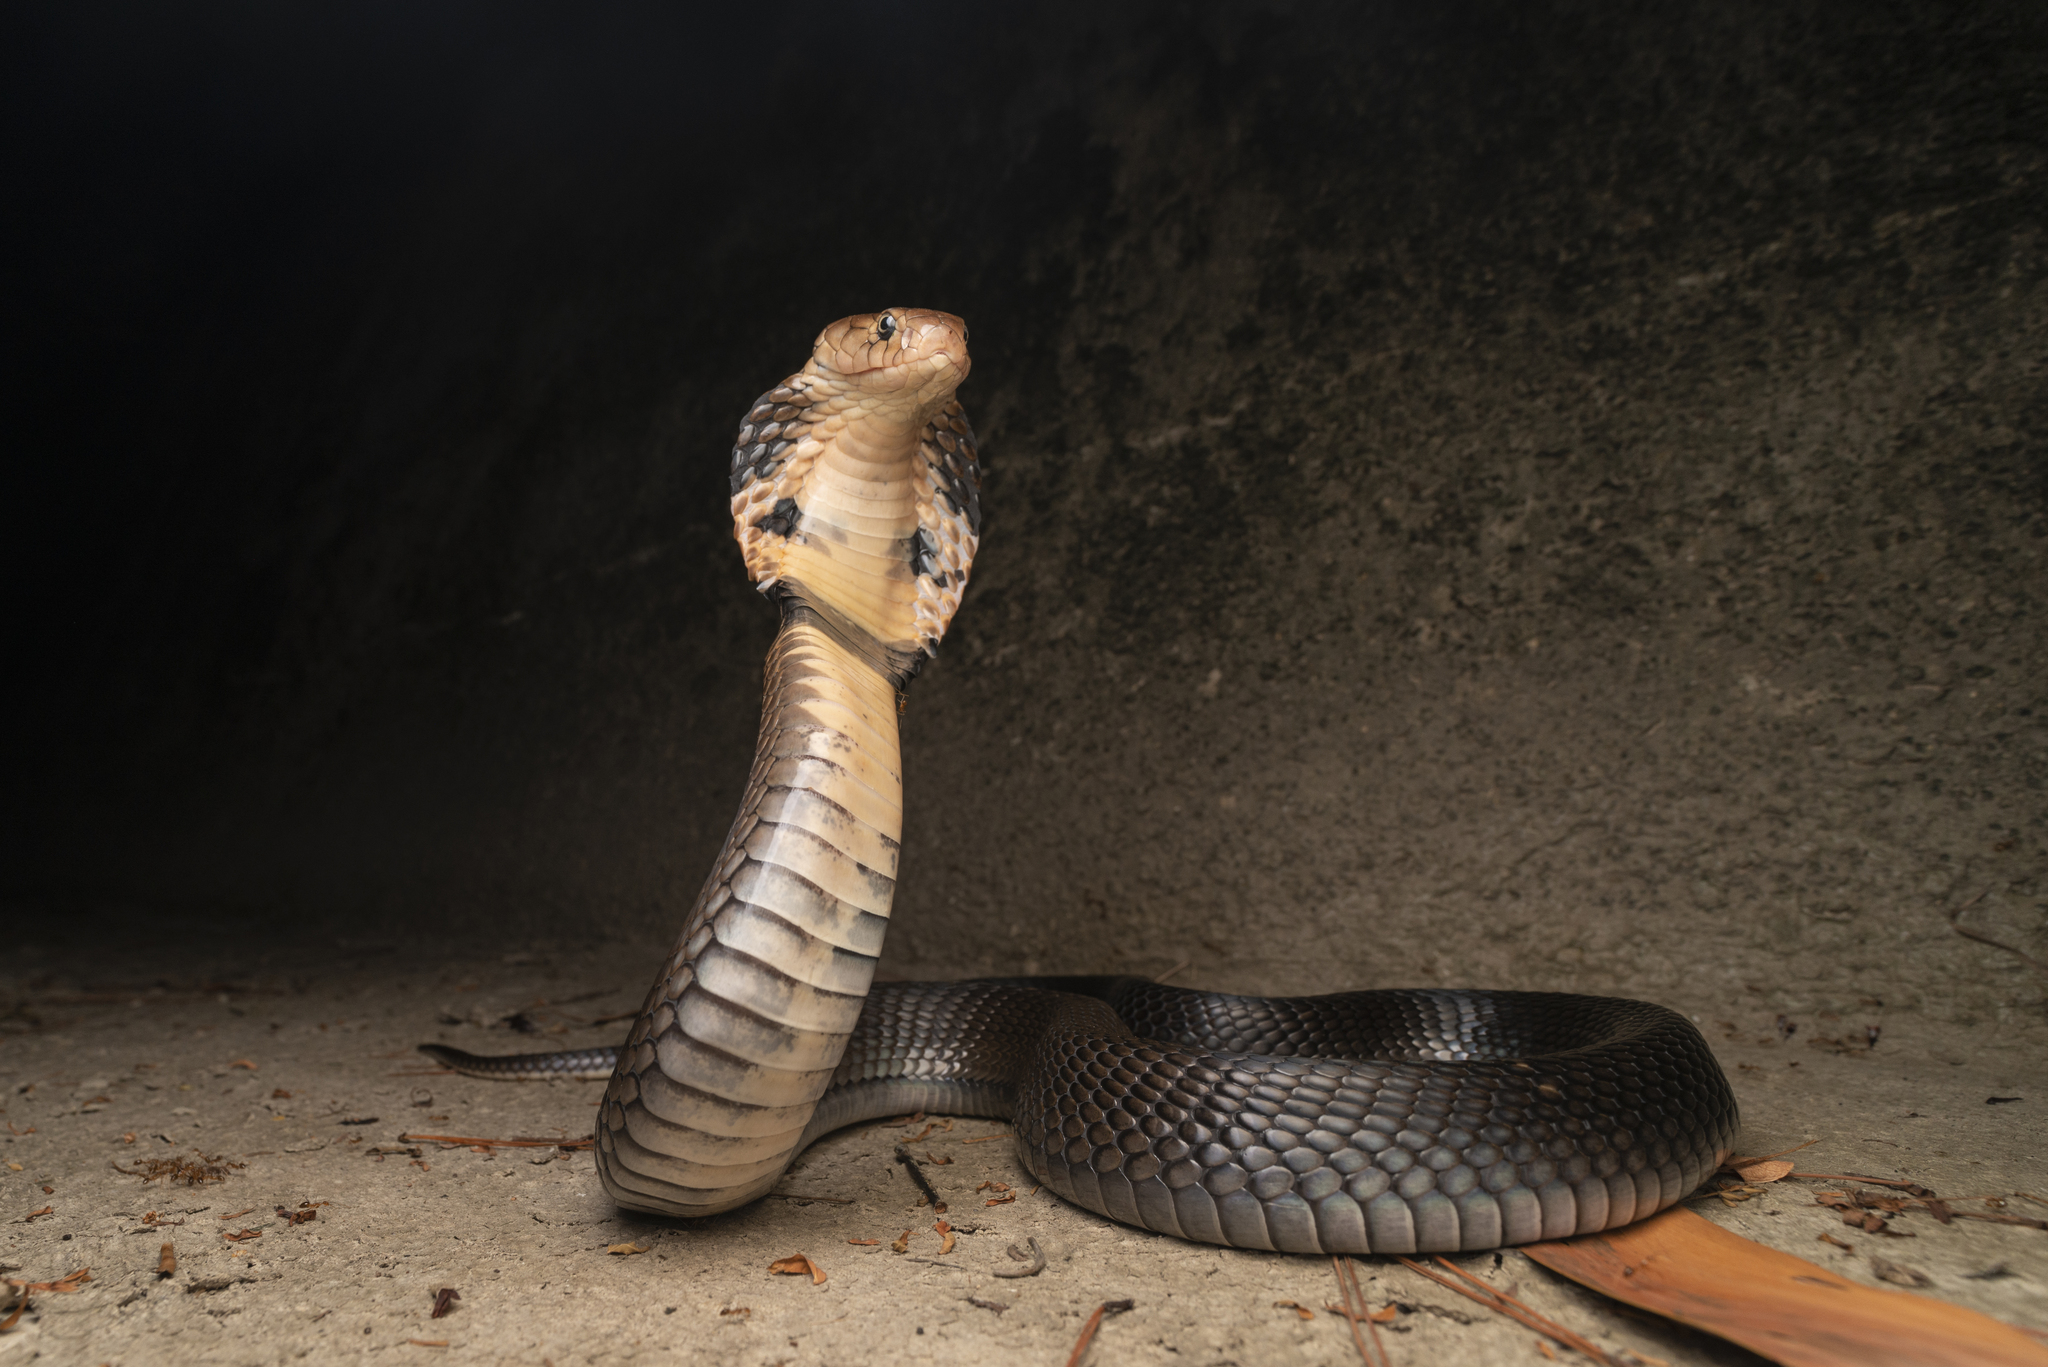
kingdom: Animalia
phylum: Chordata
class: Squamata
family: Elapidae
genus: Naja
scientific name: Naja atra
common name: Chinese cobra
